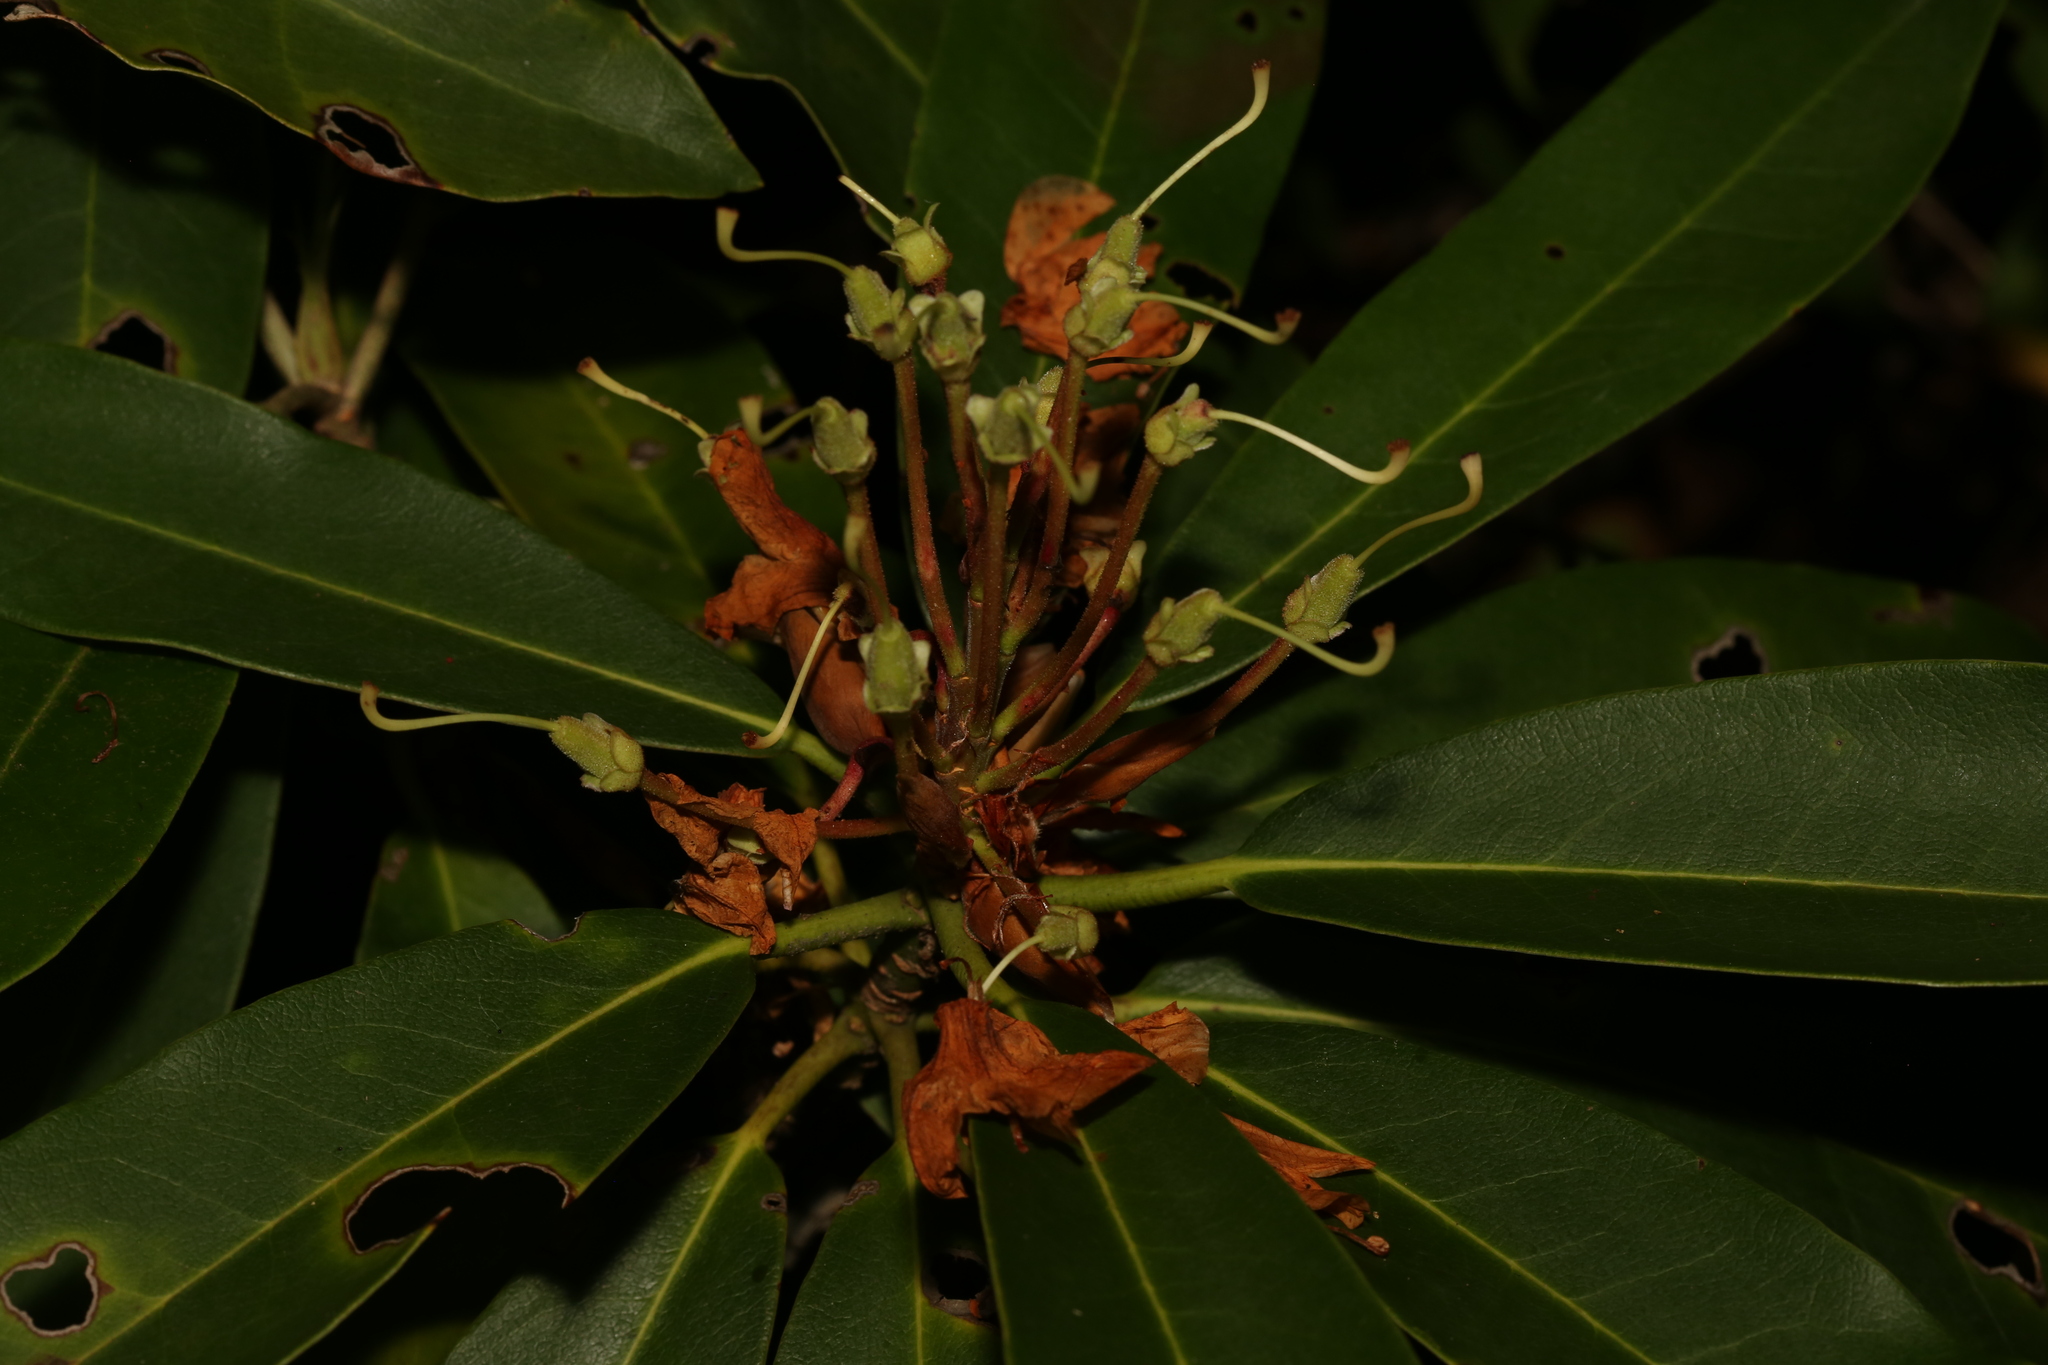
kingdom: Plantae
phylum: Tracheophyta
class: Magnoliopsida
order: Ericales
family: Ericaceae
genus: Rhododendron
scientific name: Rhododendron maximum
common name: Great rhododendron
